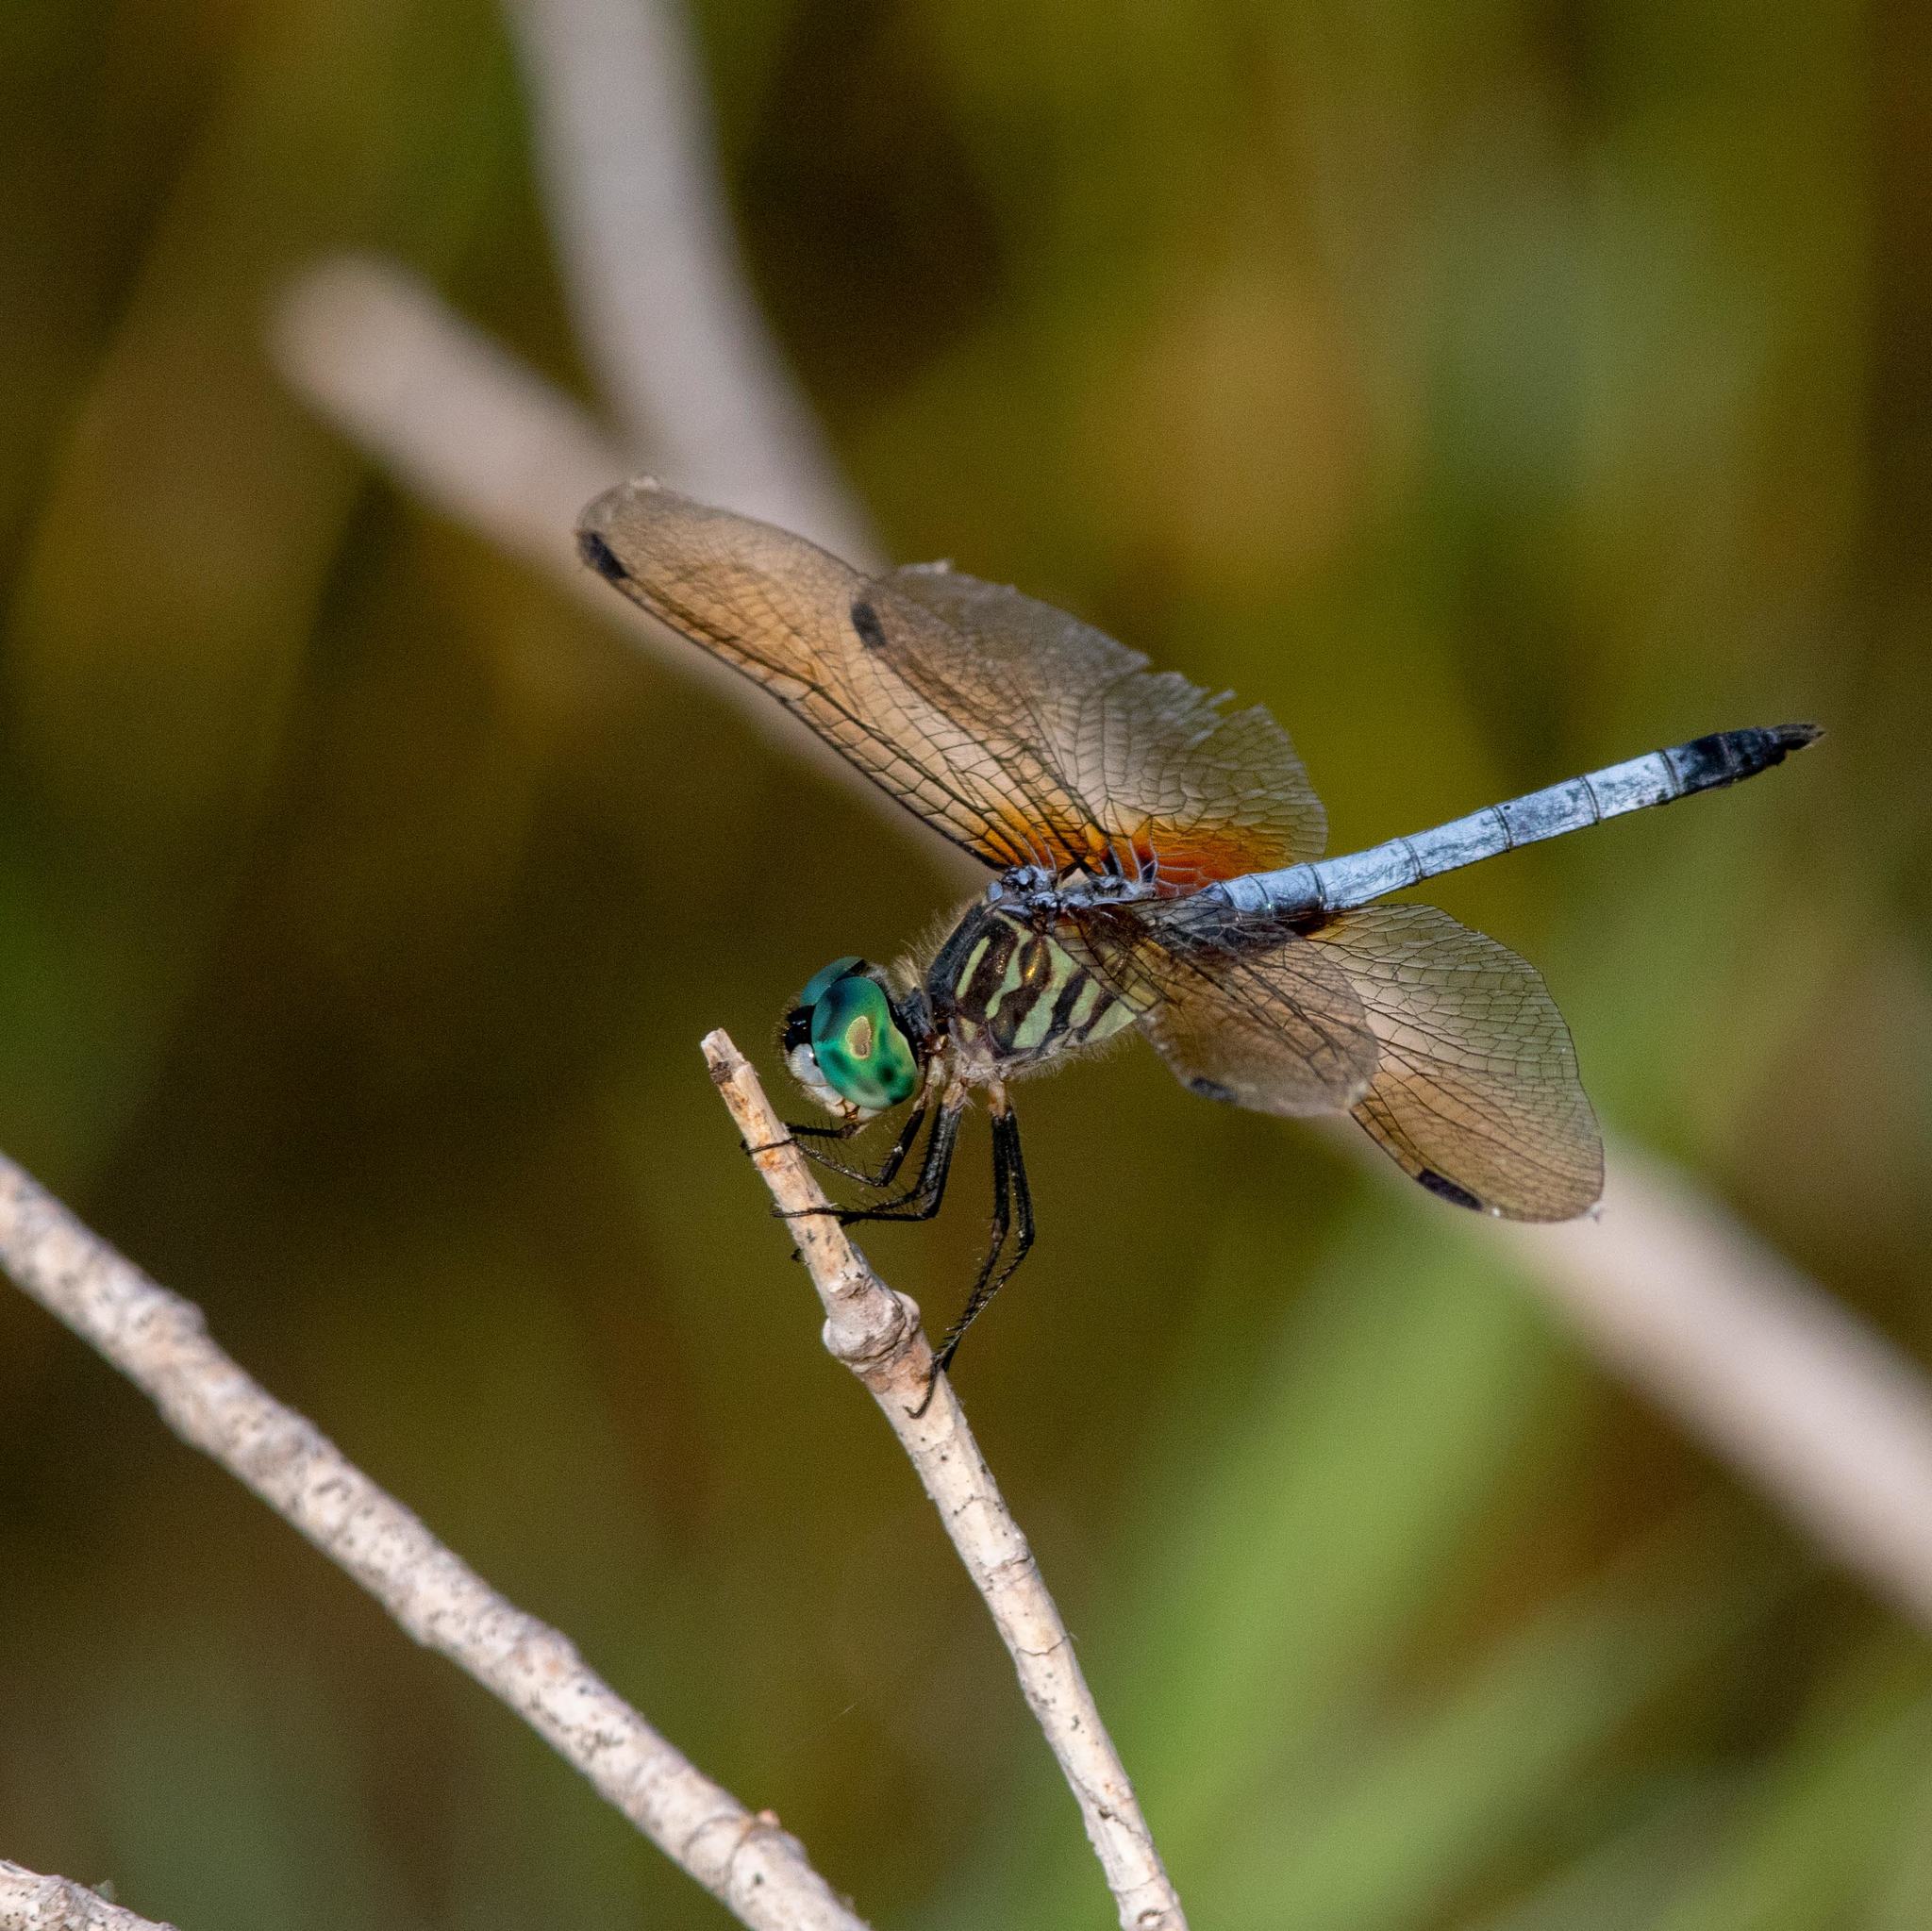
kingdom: Animalia
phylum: Arthropoda
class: Insecta
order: Odonata
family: Libellulidae
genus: Pachydiplax
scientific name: Pachydiplax longipennis
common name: Blue dasher
